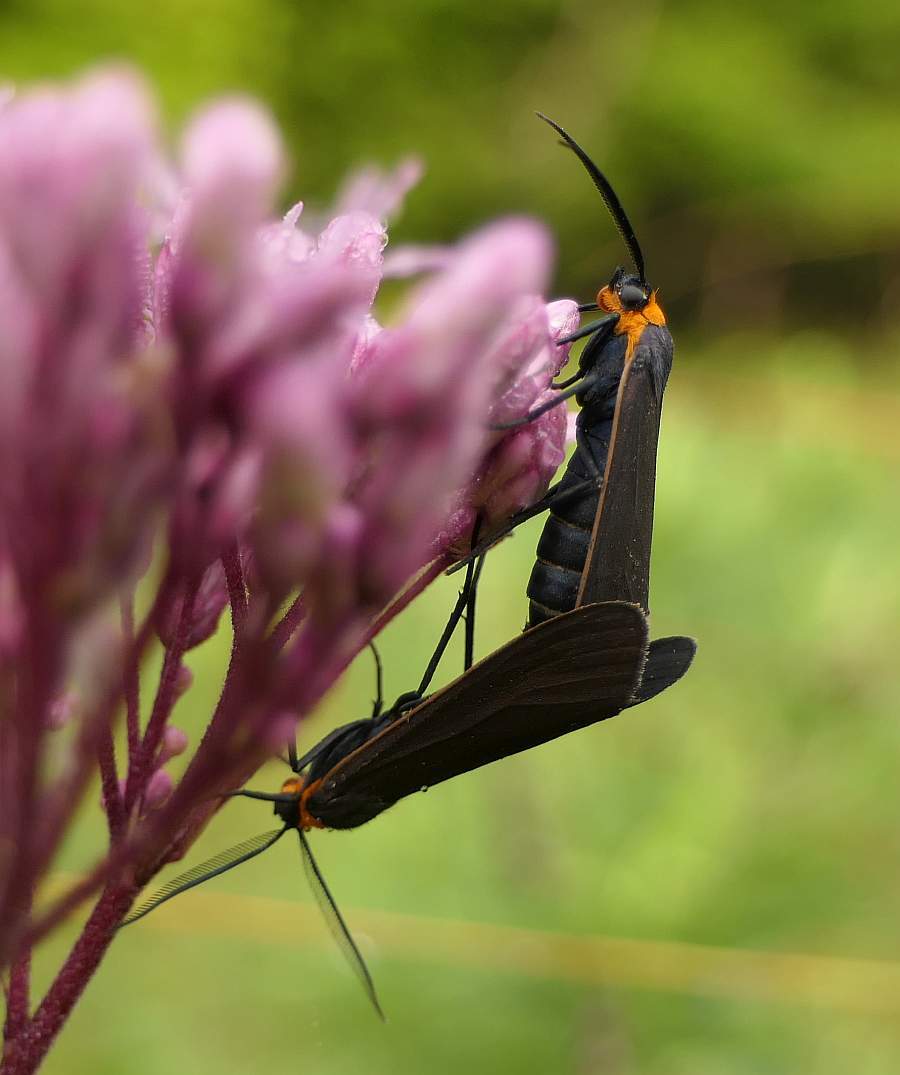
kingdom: Animalia
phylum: Arthropoda
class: Insecta
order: Lepidoptera
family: Erebidae
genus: Cisseps
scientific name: Cisseps fulvicollis
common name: Yellow-collared scape moth
